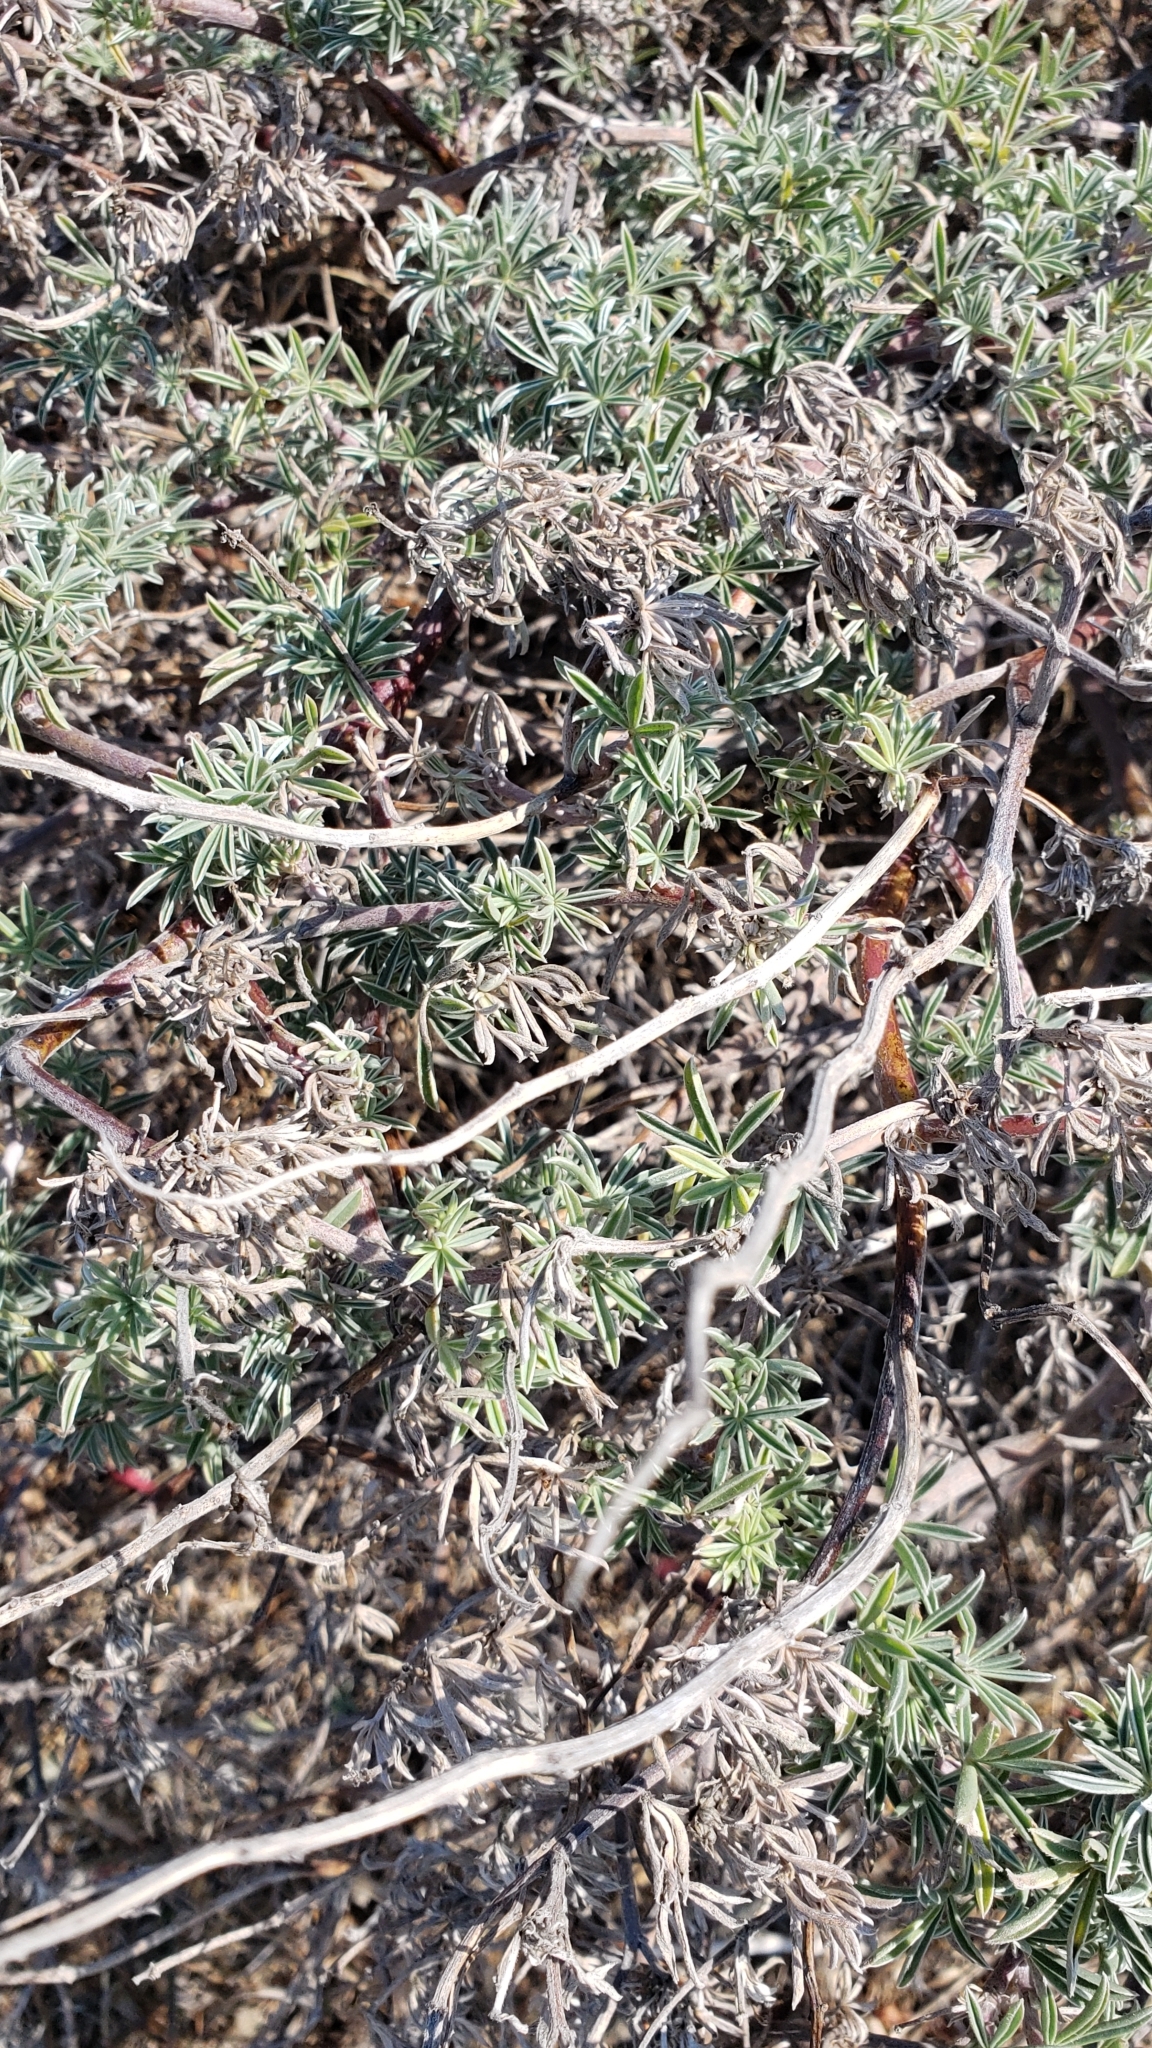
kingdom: Plantae
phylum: Tracheophyta
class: Magnoliopsida
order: Fabales
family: Fabaceae
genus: Lupinus
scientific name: Lupinus arboreus
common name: Yellow bush lupine
